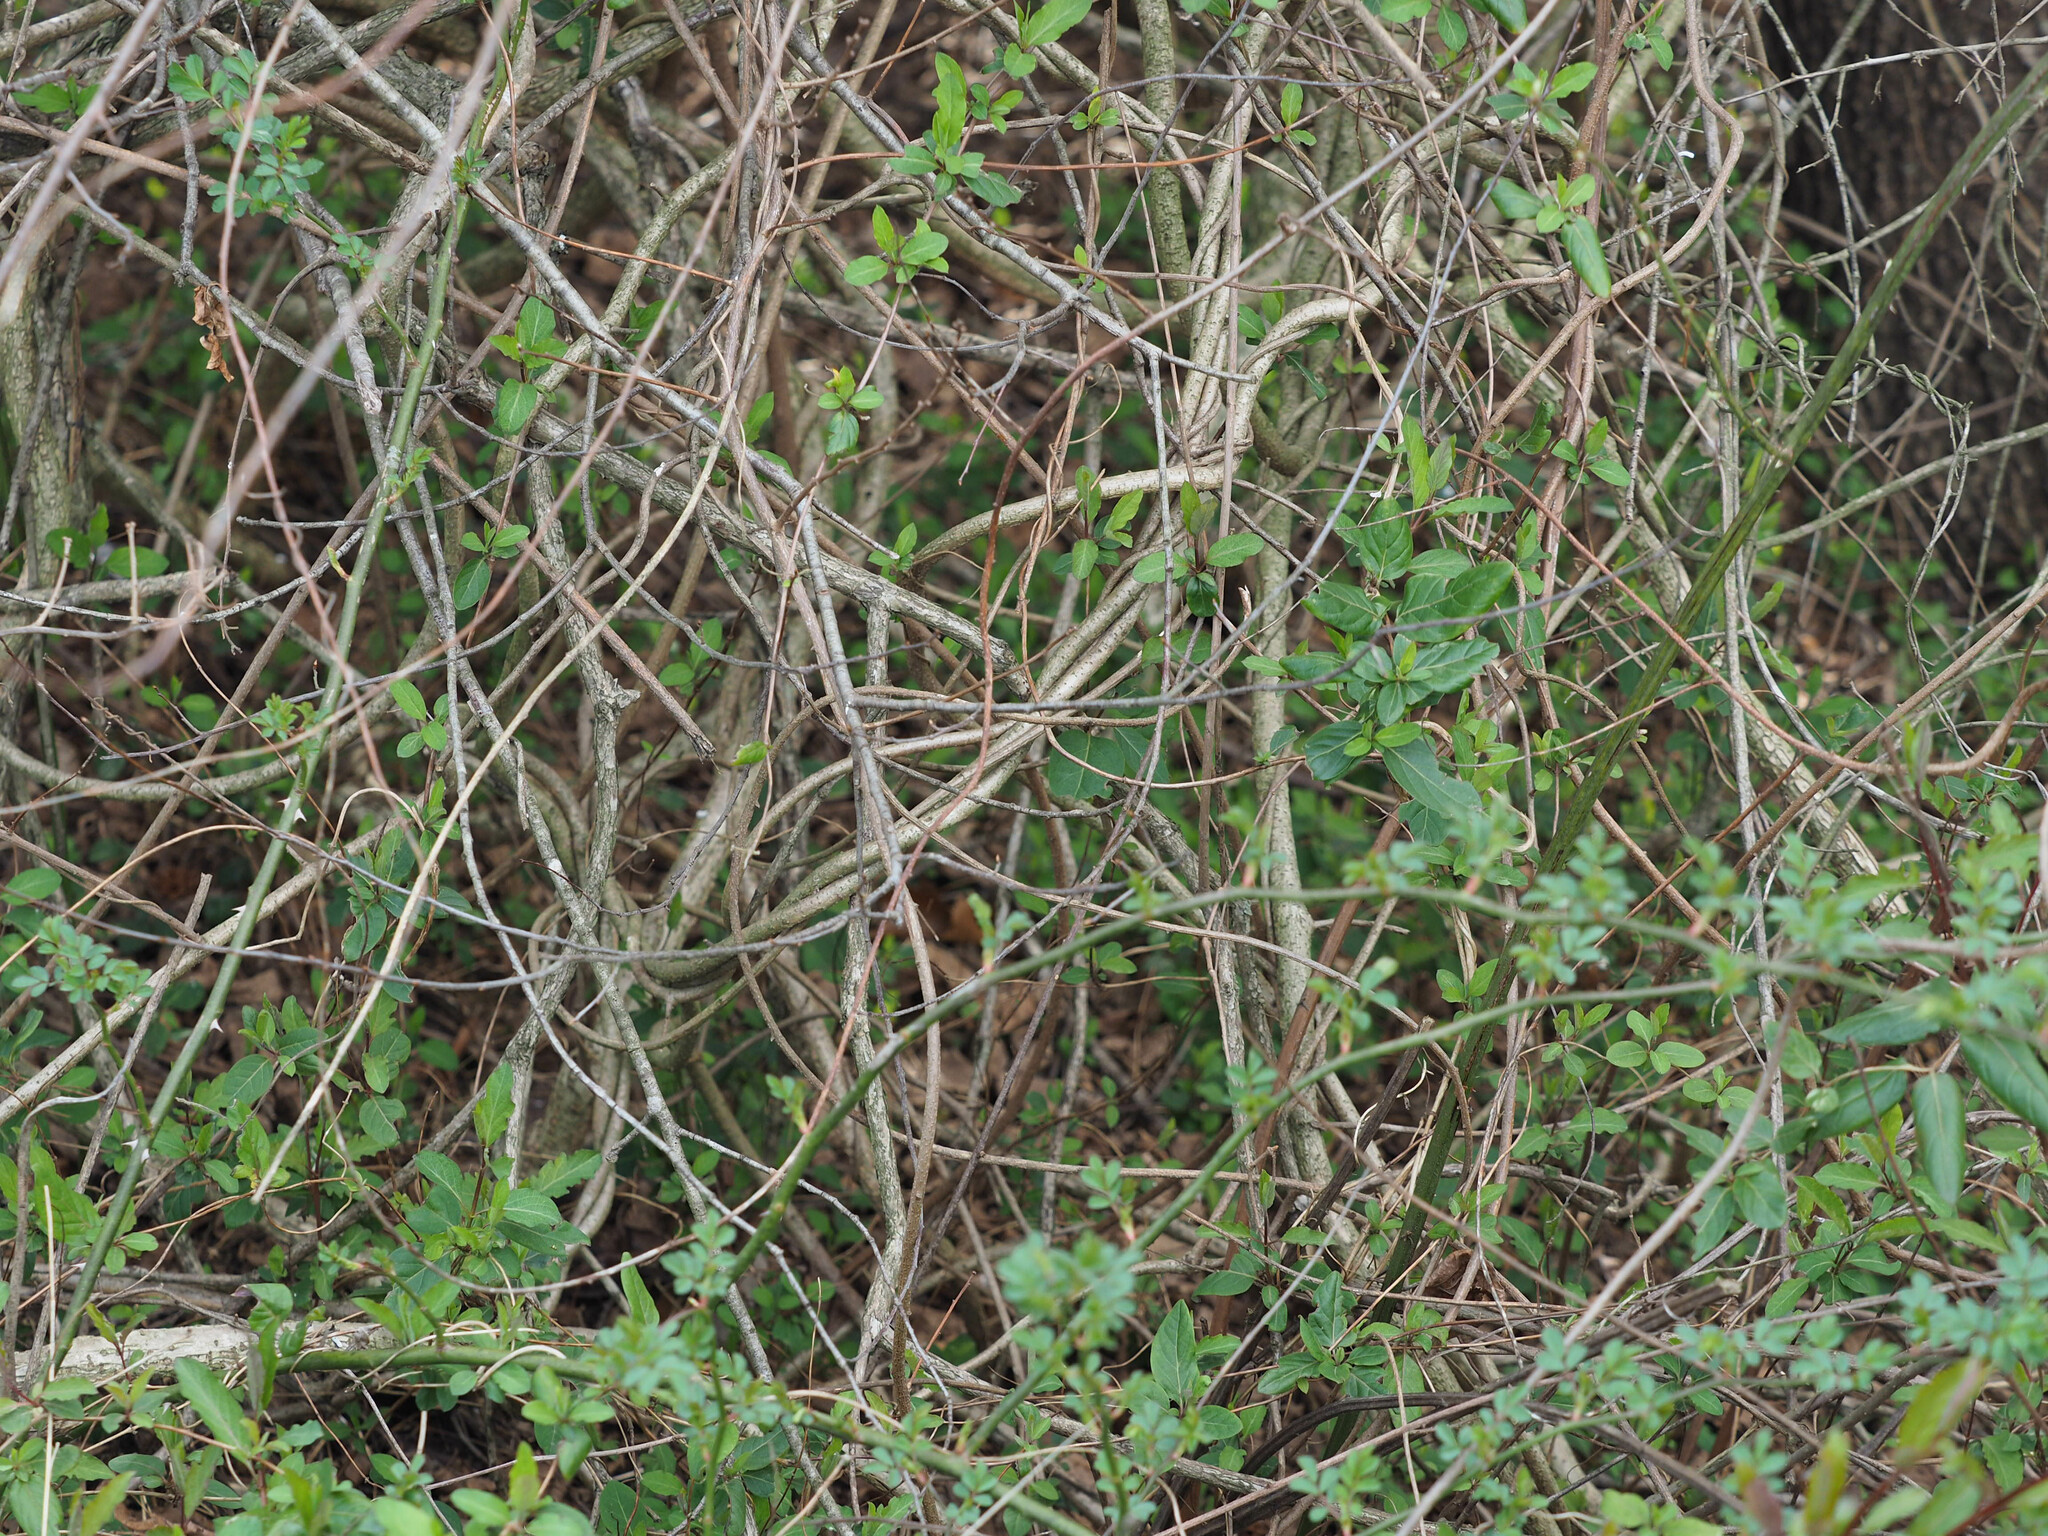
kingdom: Plantae
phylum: Tracheophyta
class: Magnoliopsida
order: Celastrales
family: Celastraceae
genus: Celastrus
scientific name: Celastrus orbiculatus
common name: Oriental bittersweet
